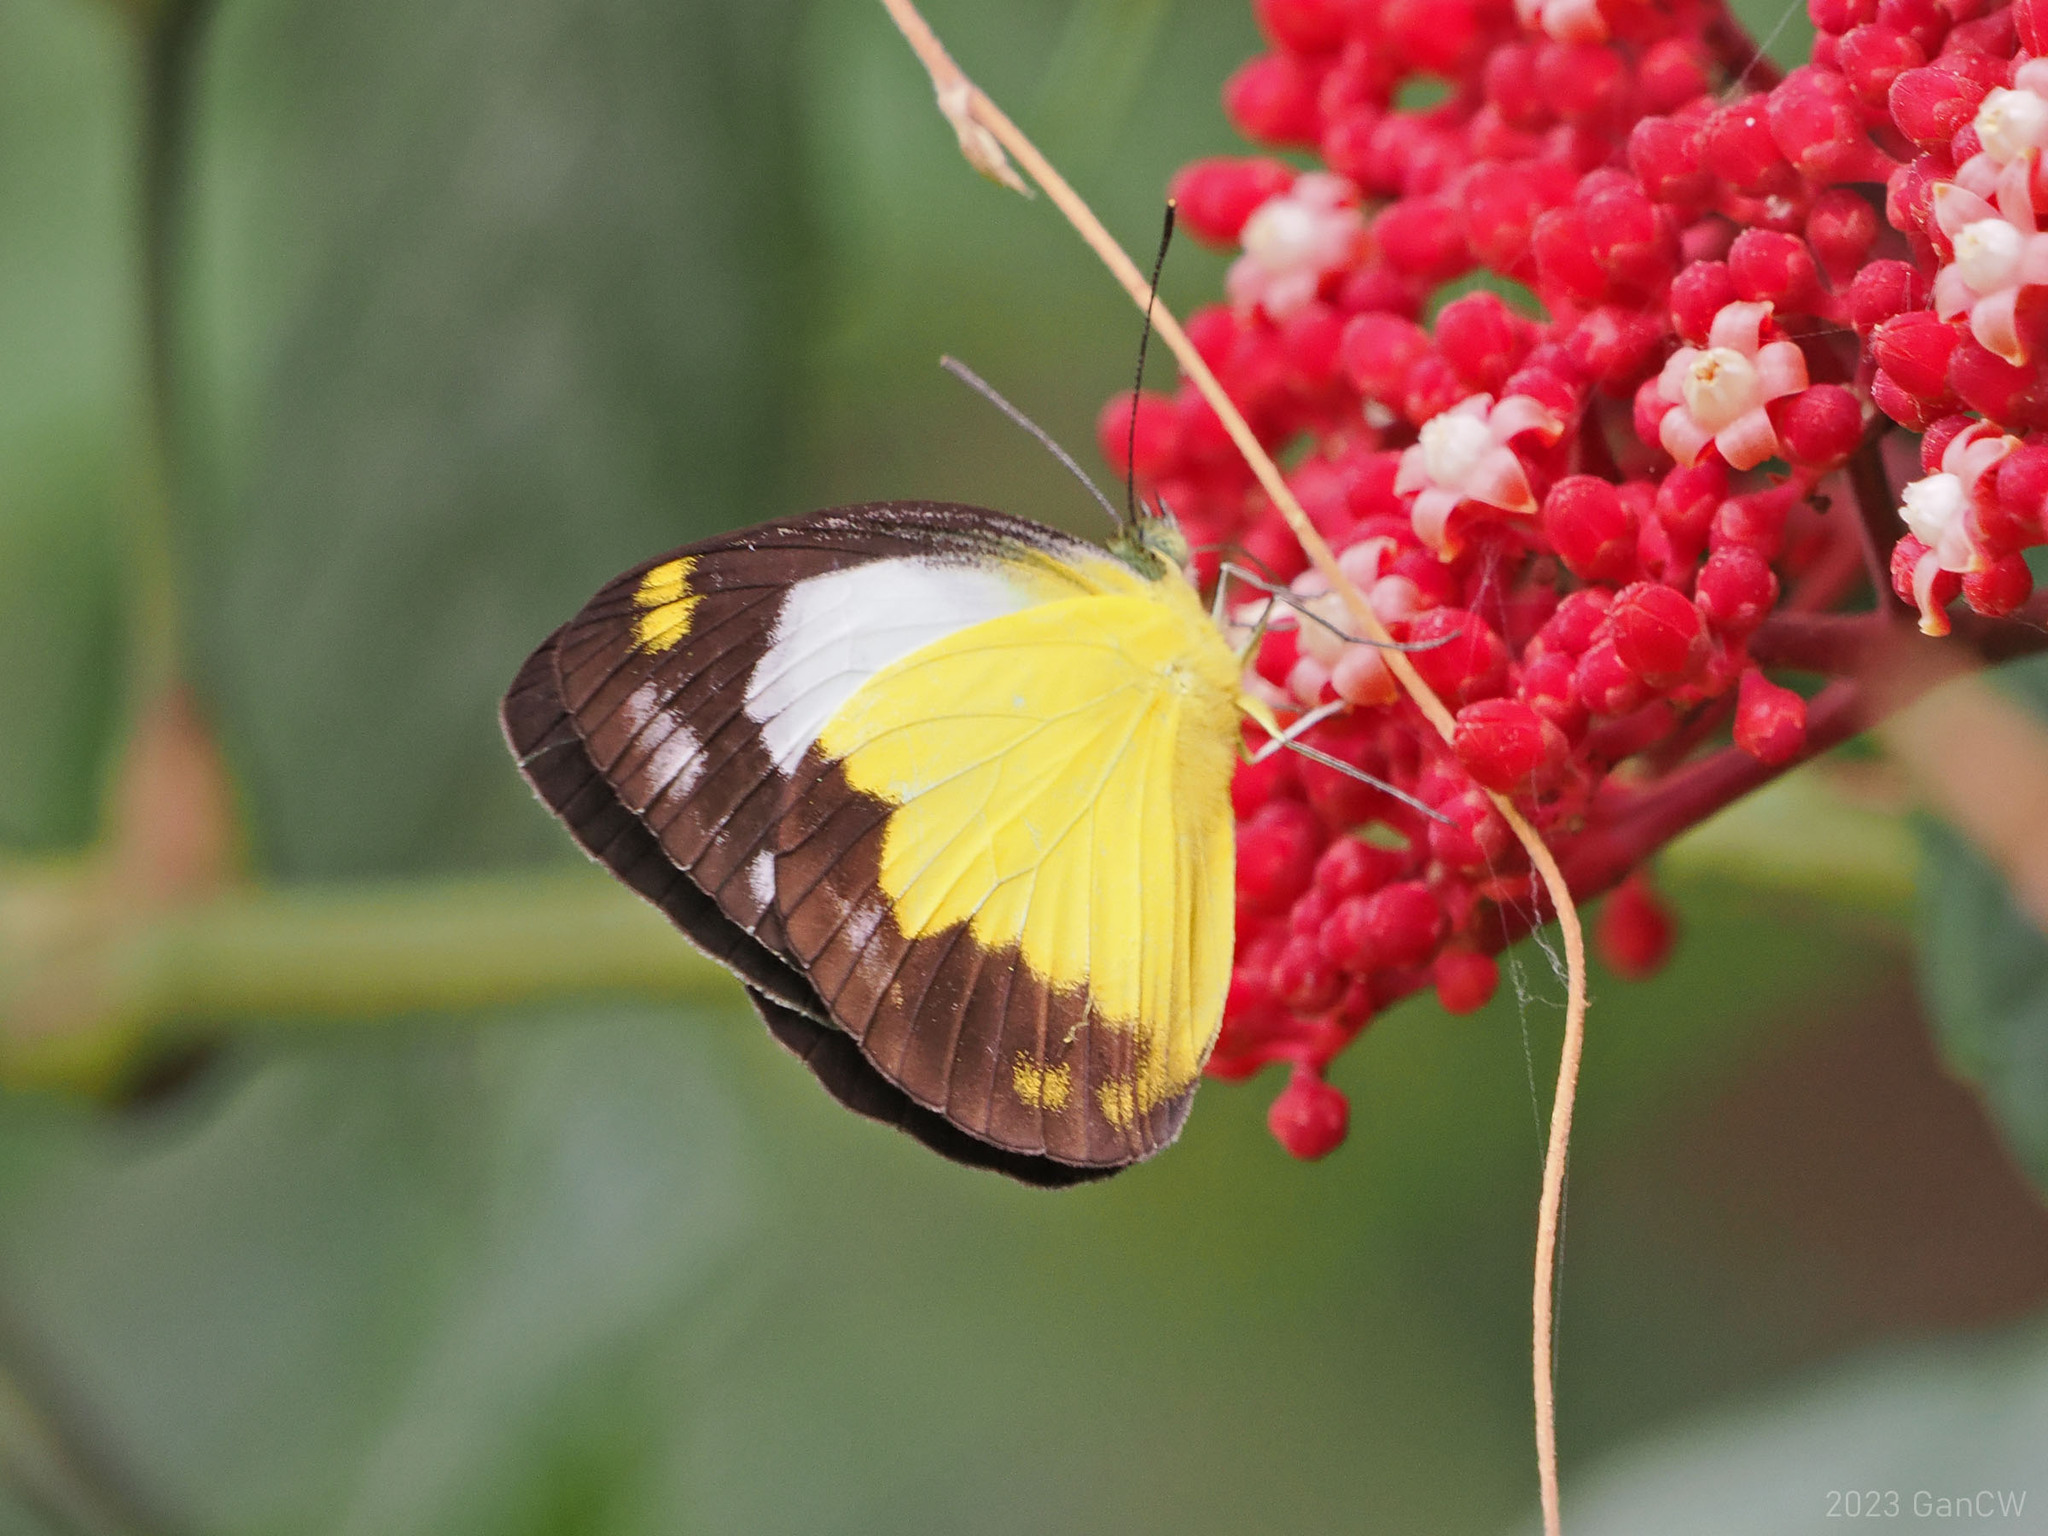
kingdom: Animalia
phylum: Arthropoda
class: Insecta
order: Lepidoptera
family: Pieridae
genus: Cepora
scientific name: Cepora boisduvaliana
